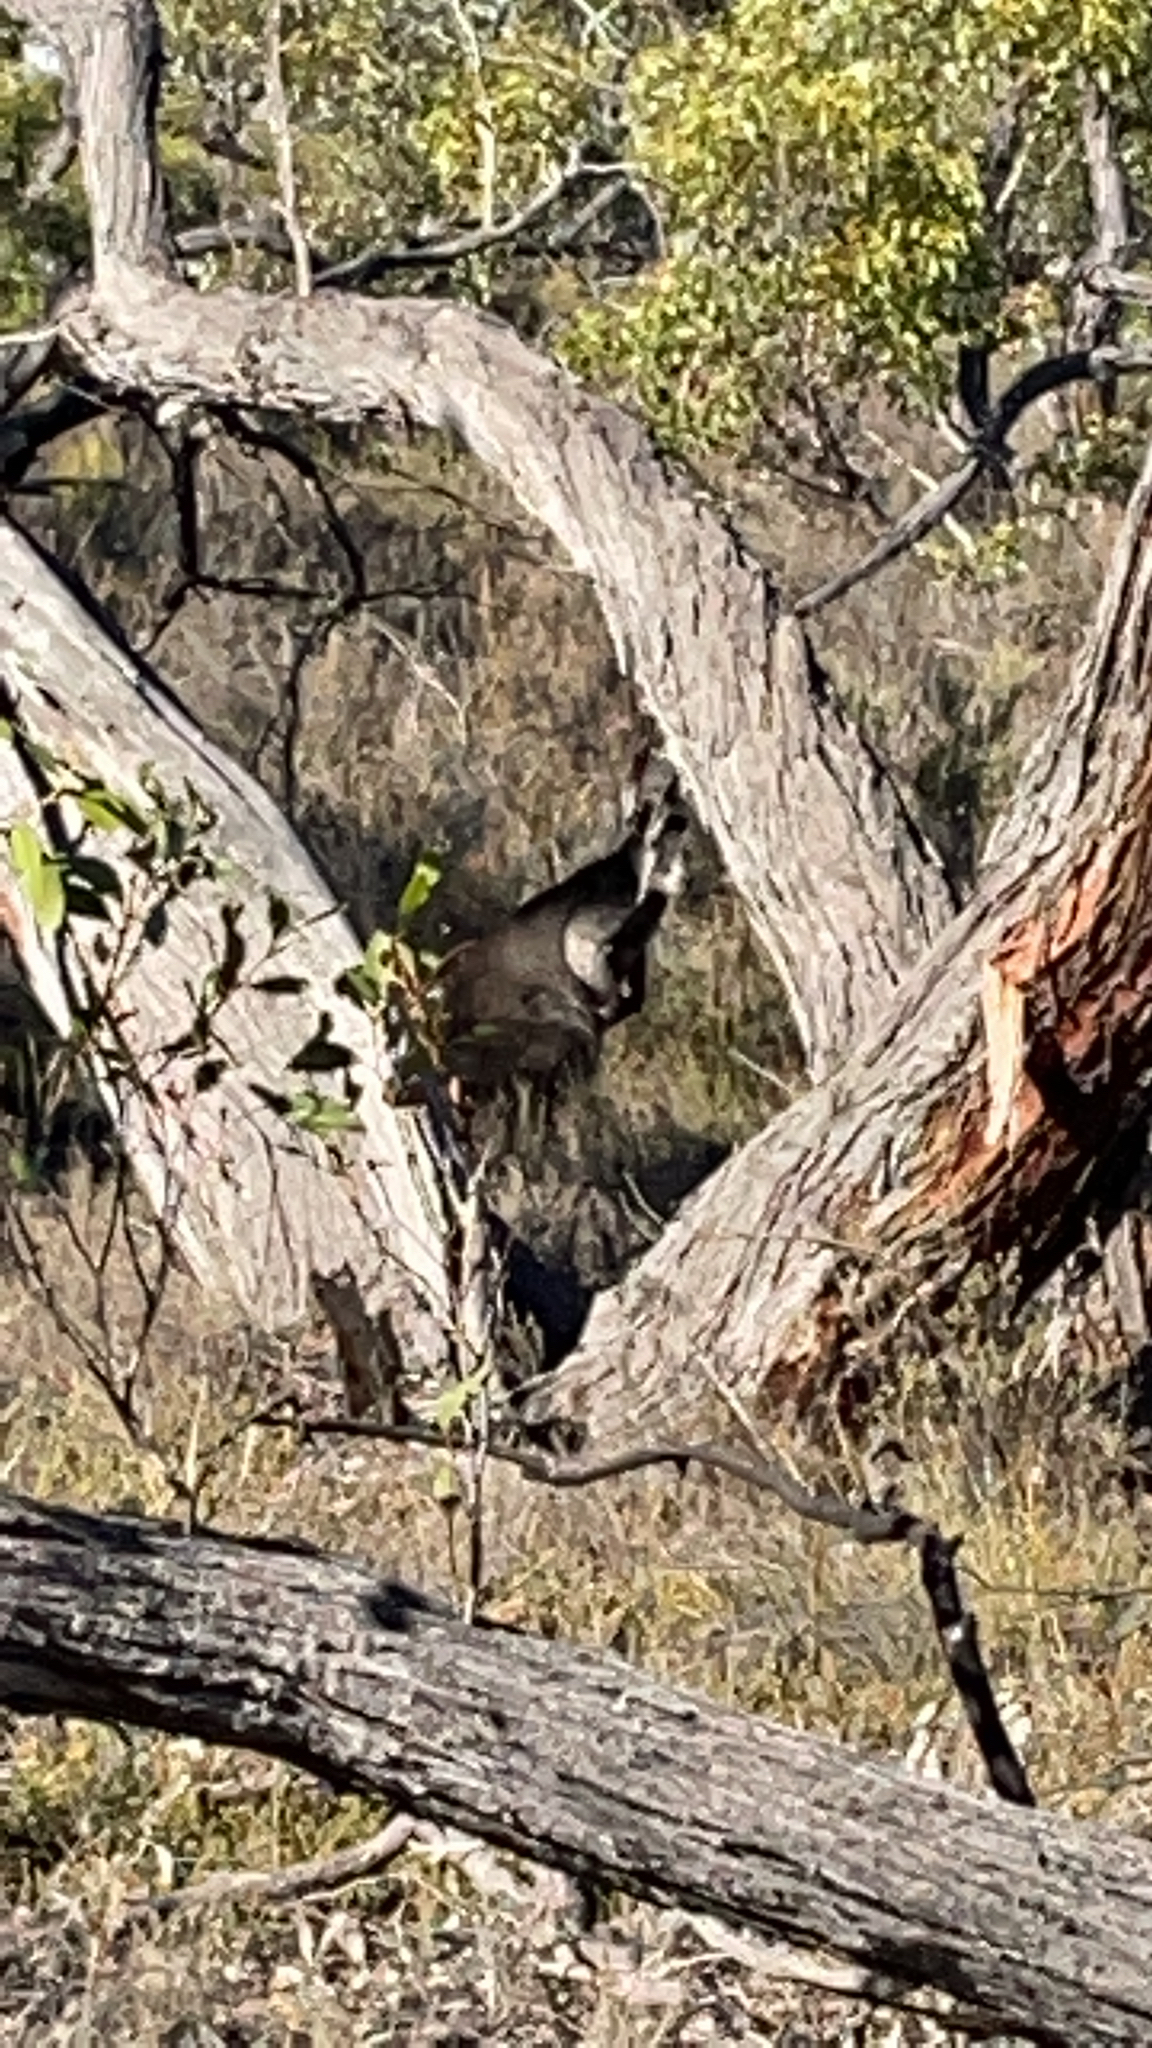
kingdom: Animalia
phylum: Chordata
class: Mammalia
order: Diprotodontia
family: Macropodidae
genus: Wallabia
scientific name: Wallabia bicolor
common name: Swamp wallaby
